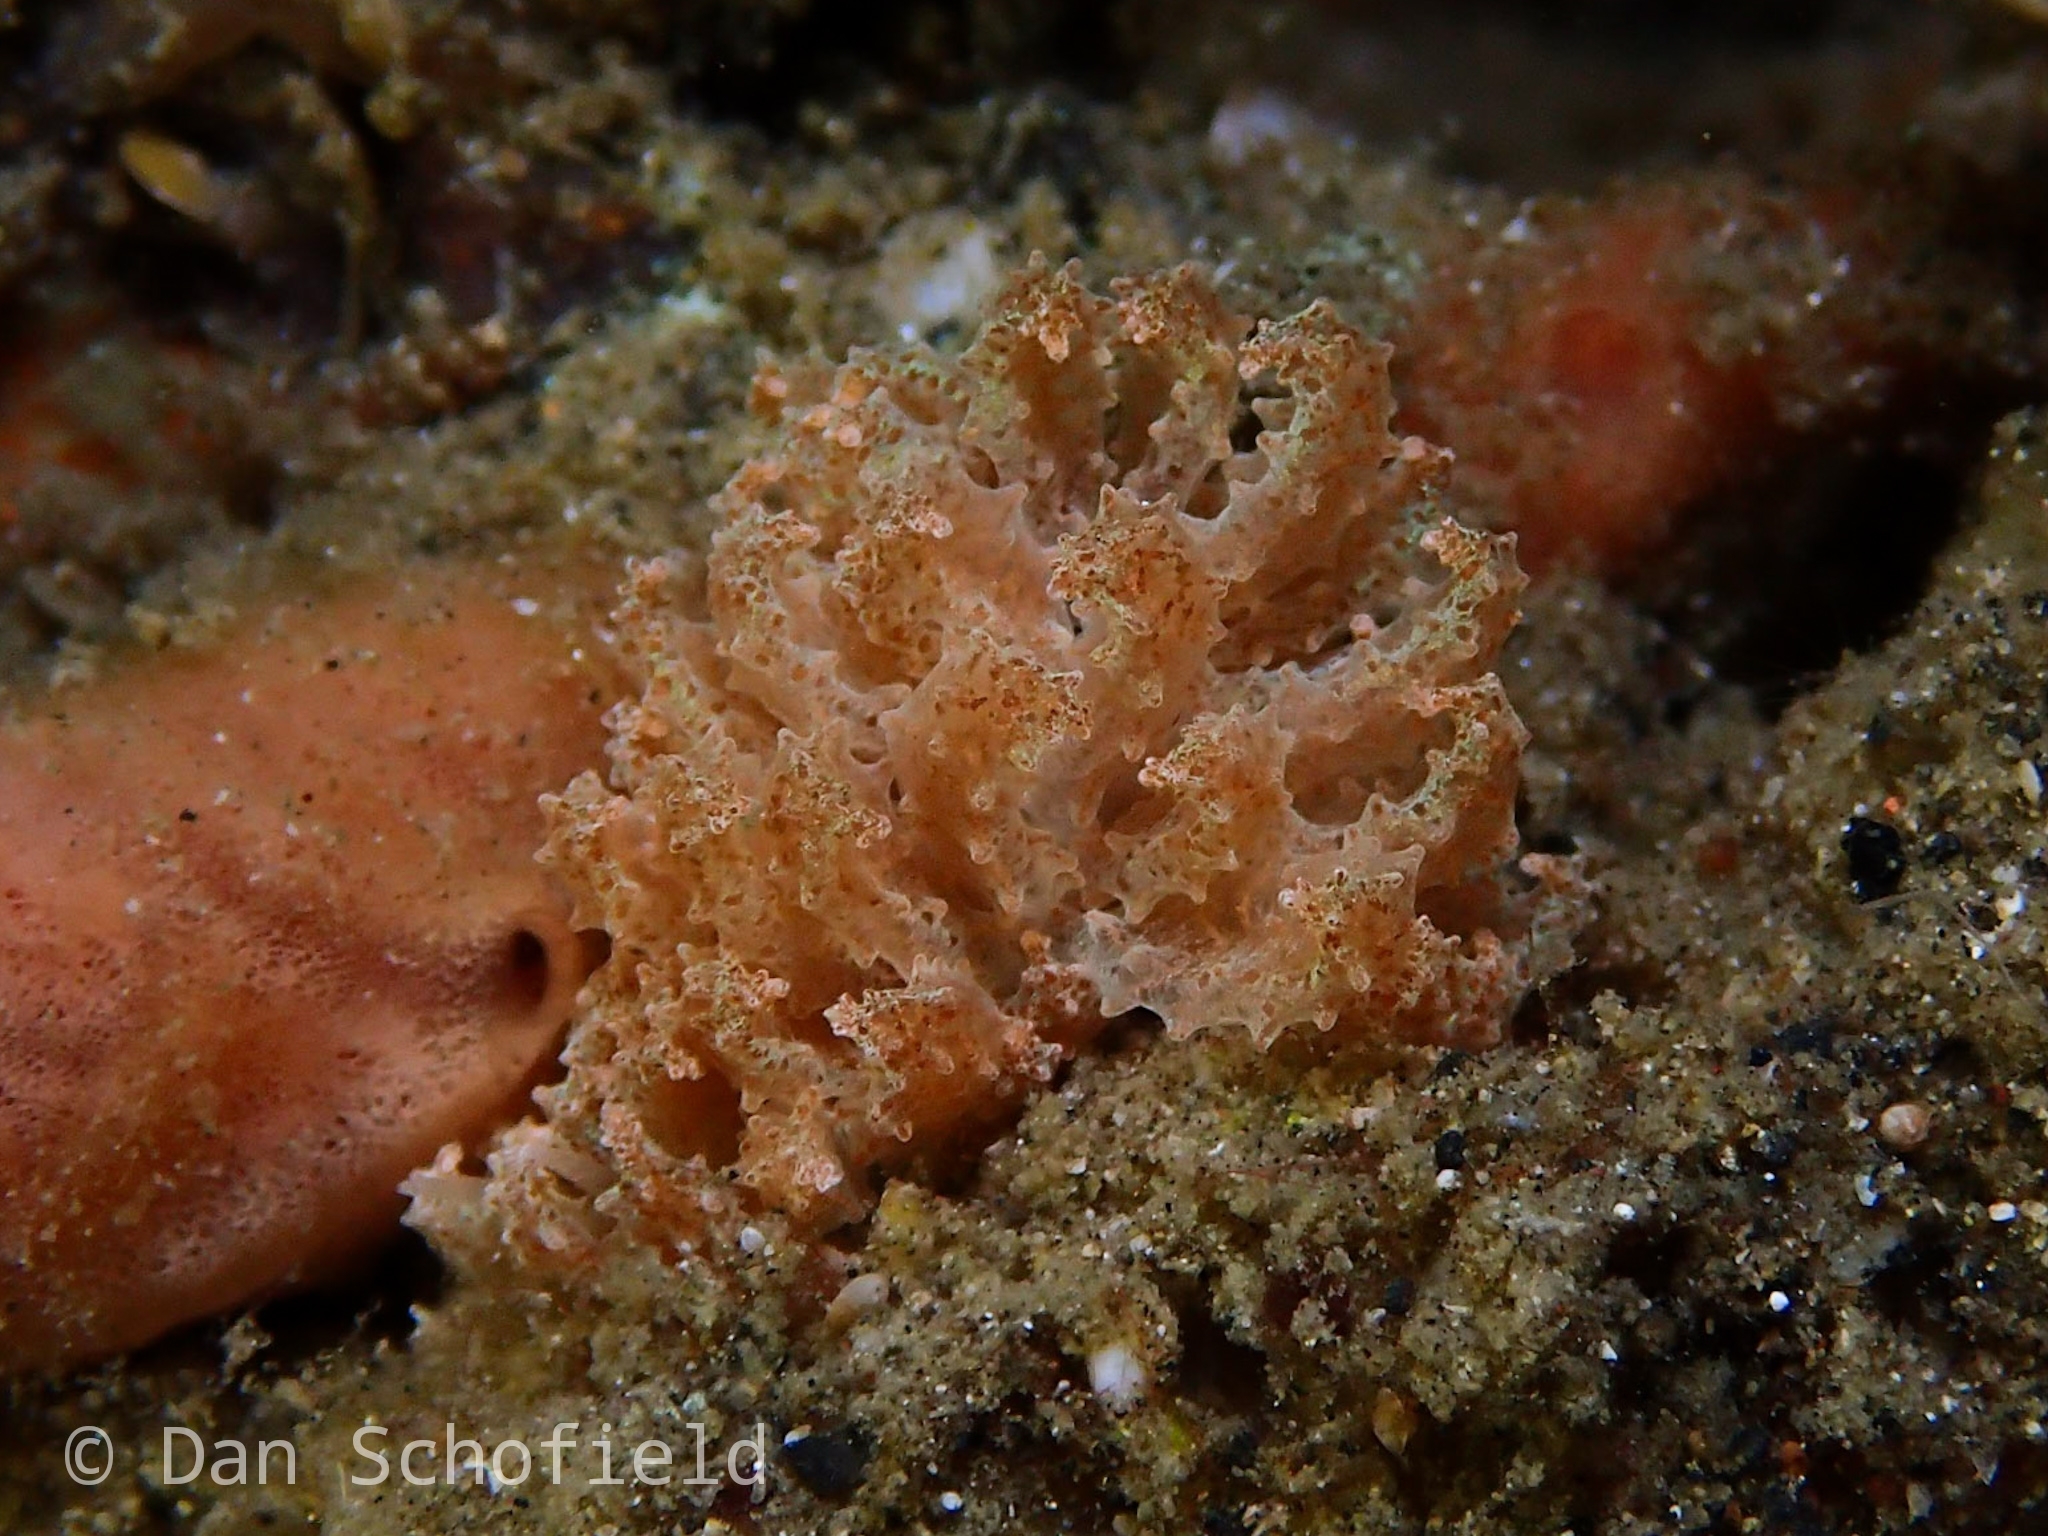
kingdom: Animalia
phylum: Mollusca
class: Gastropoda
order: Nudibranchia
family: Myrrhinidae
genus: Phyllodesmium
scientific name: Phyllodesmium crypticum
